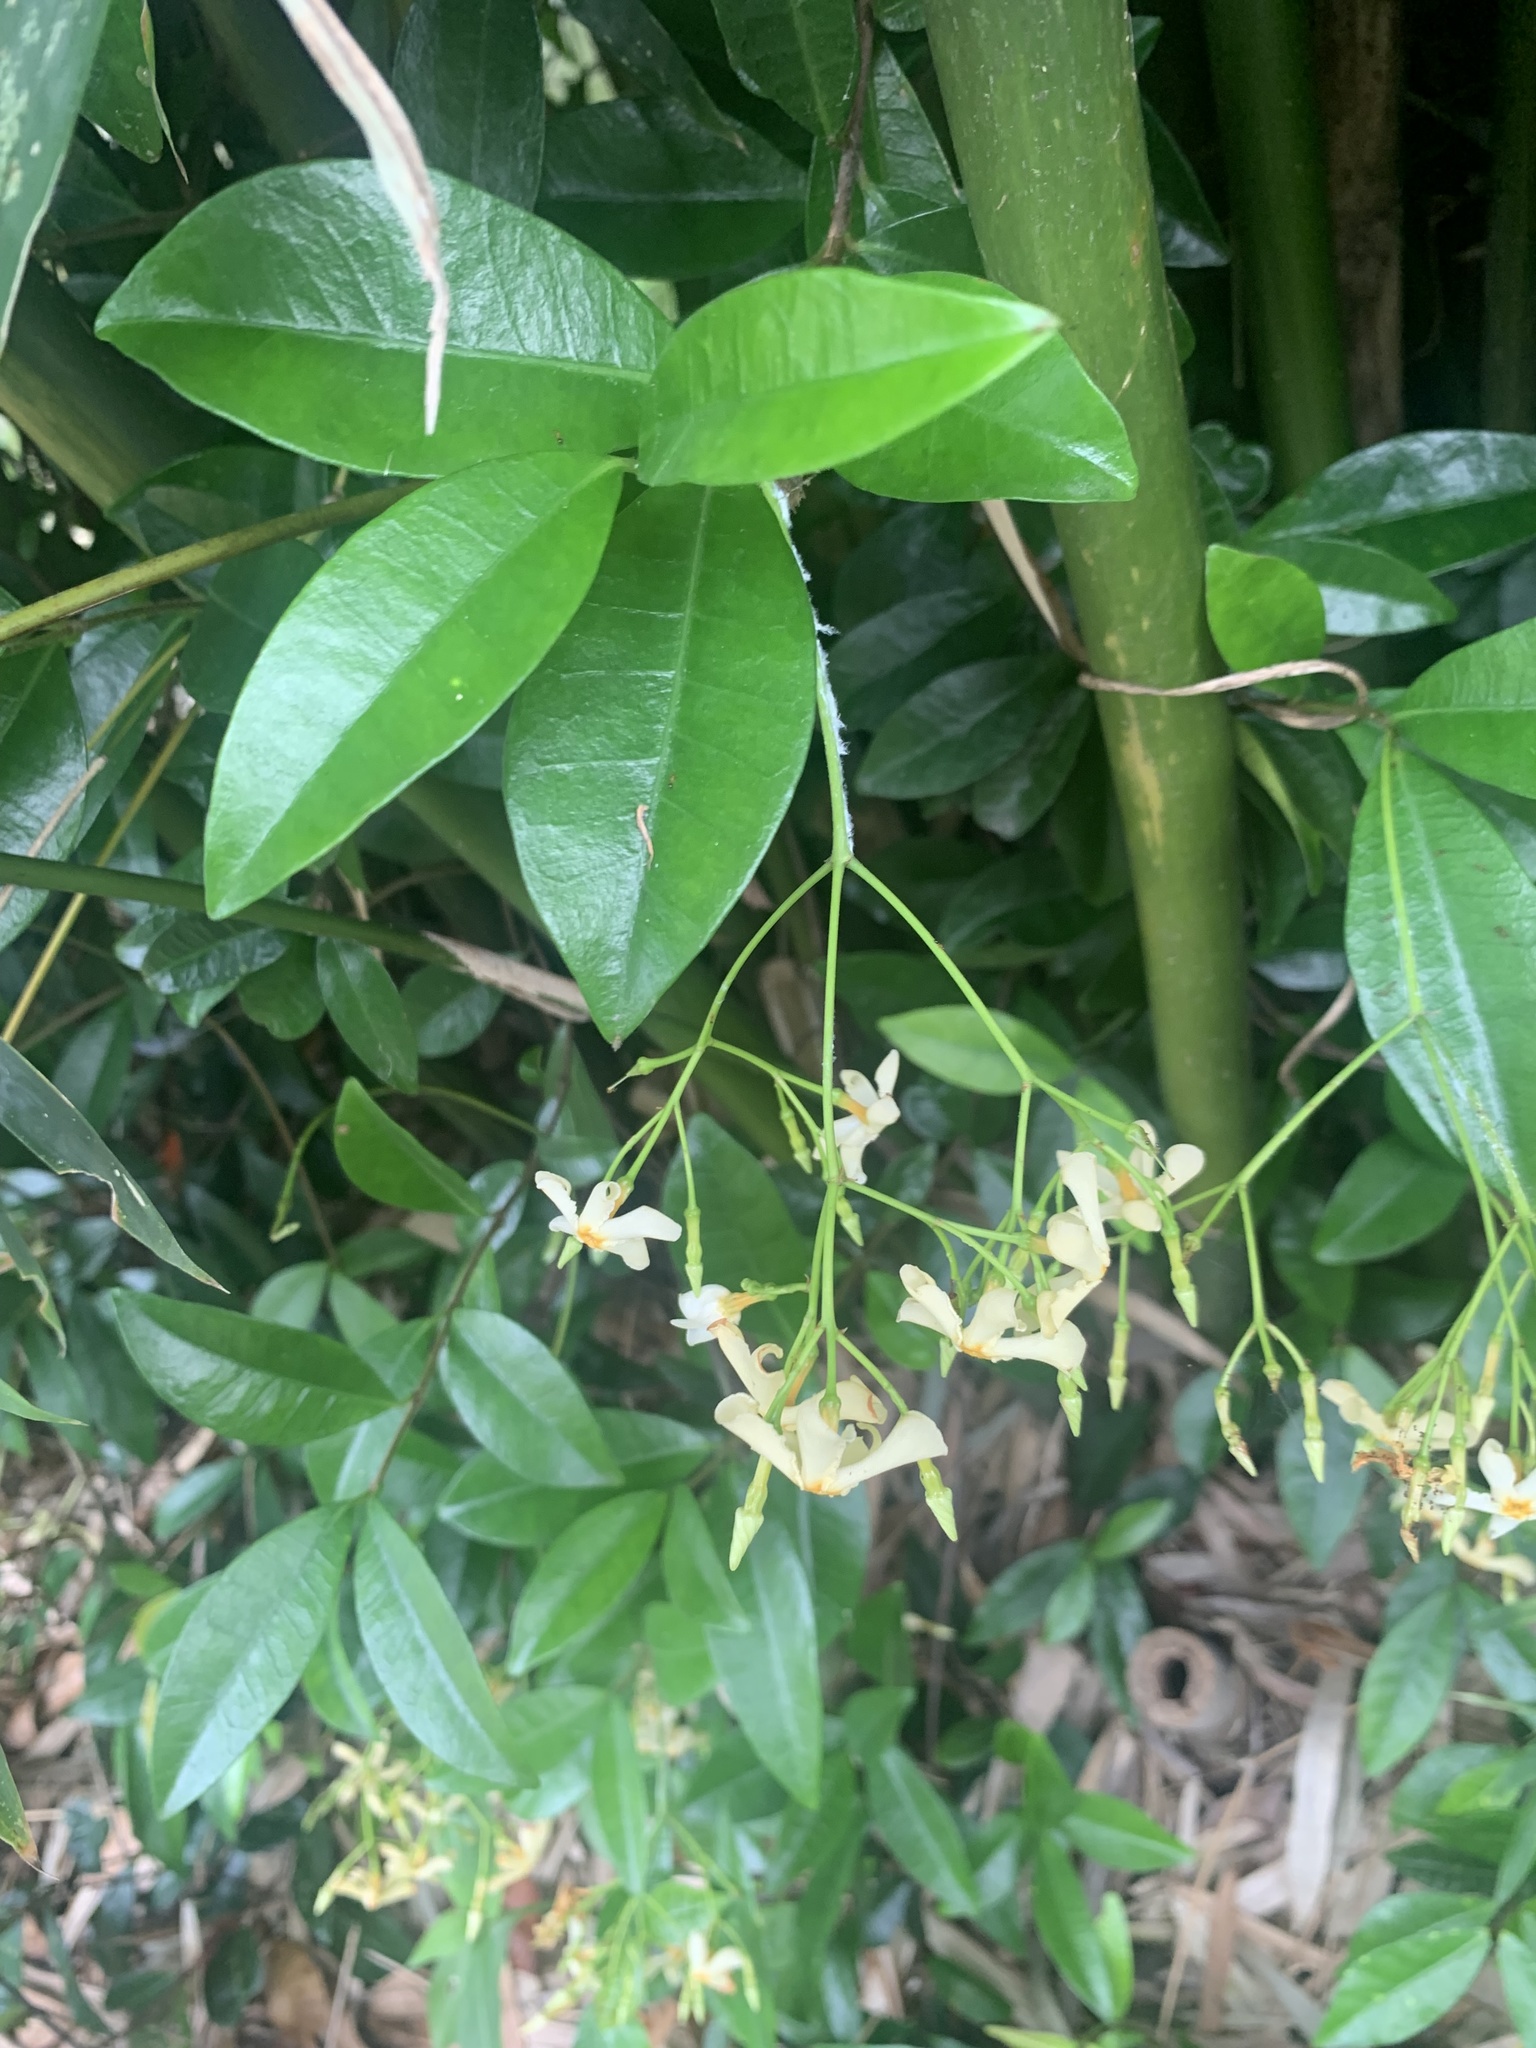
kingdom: Plantae
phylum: Tracheophyta
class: Magnoliopsida
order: Gentianales
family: Apocynaceae
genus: Trachelospermum
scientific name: Trachelospermum asiaticum
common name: Asiatic jasmine
